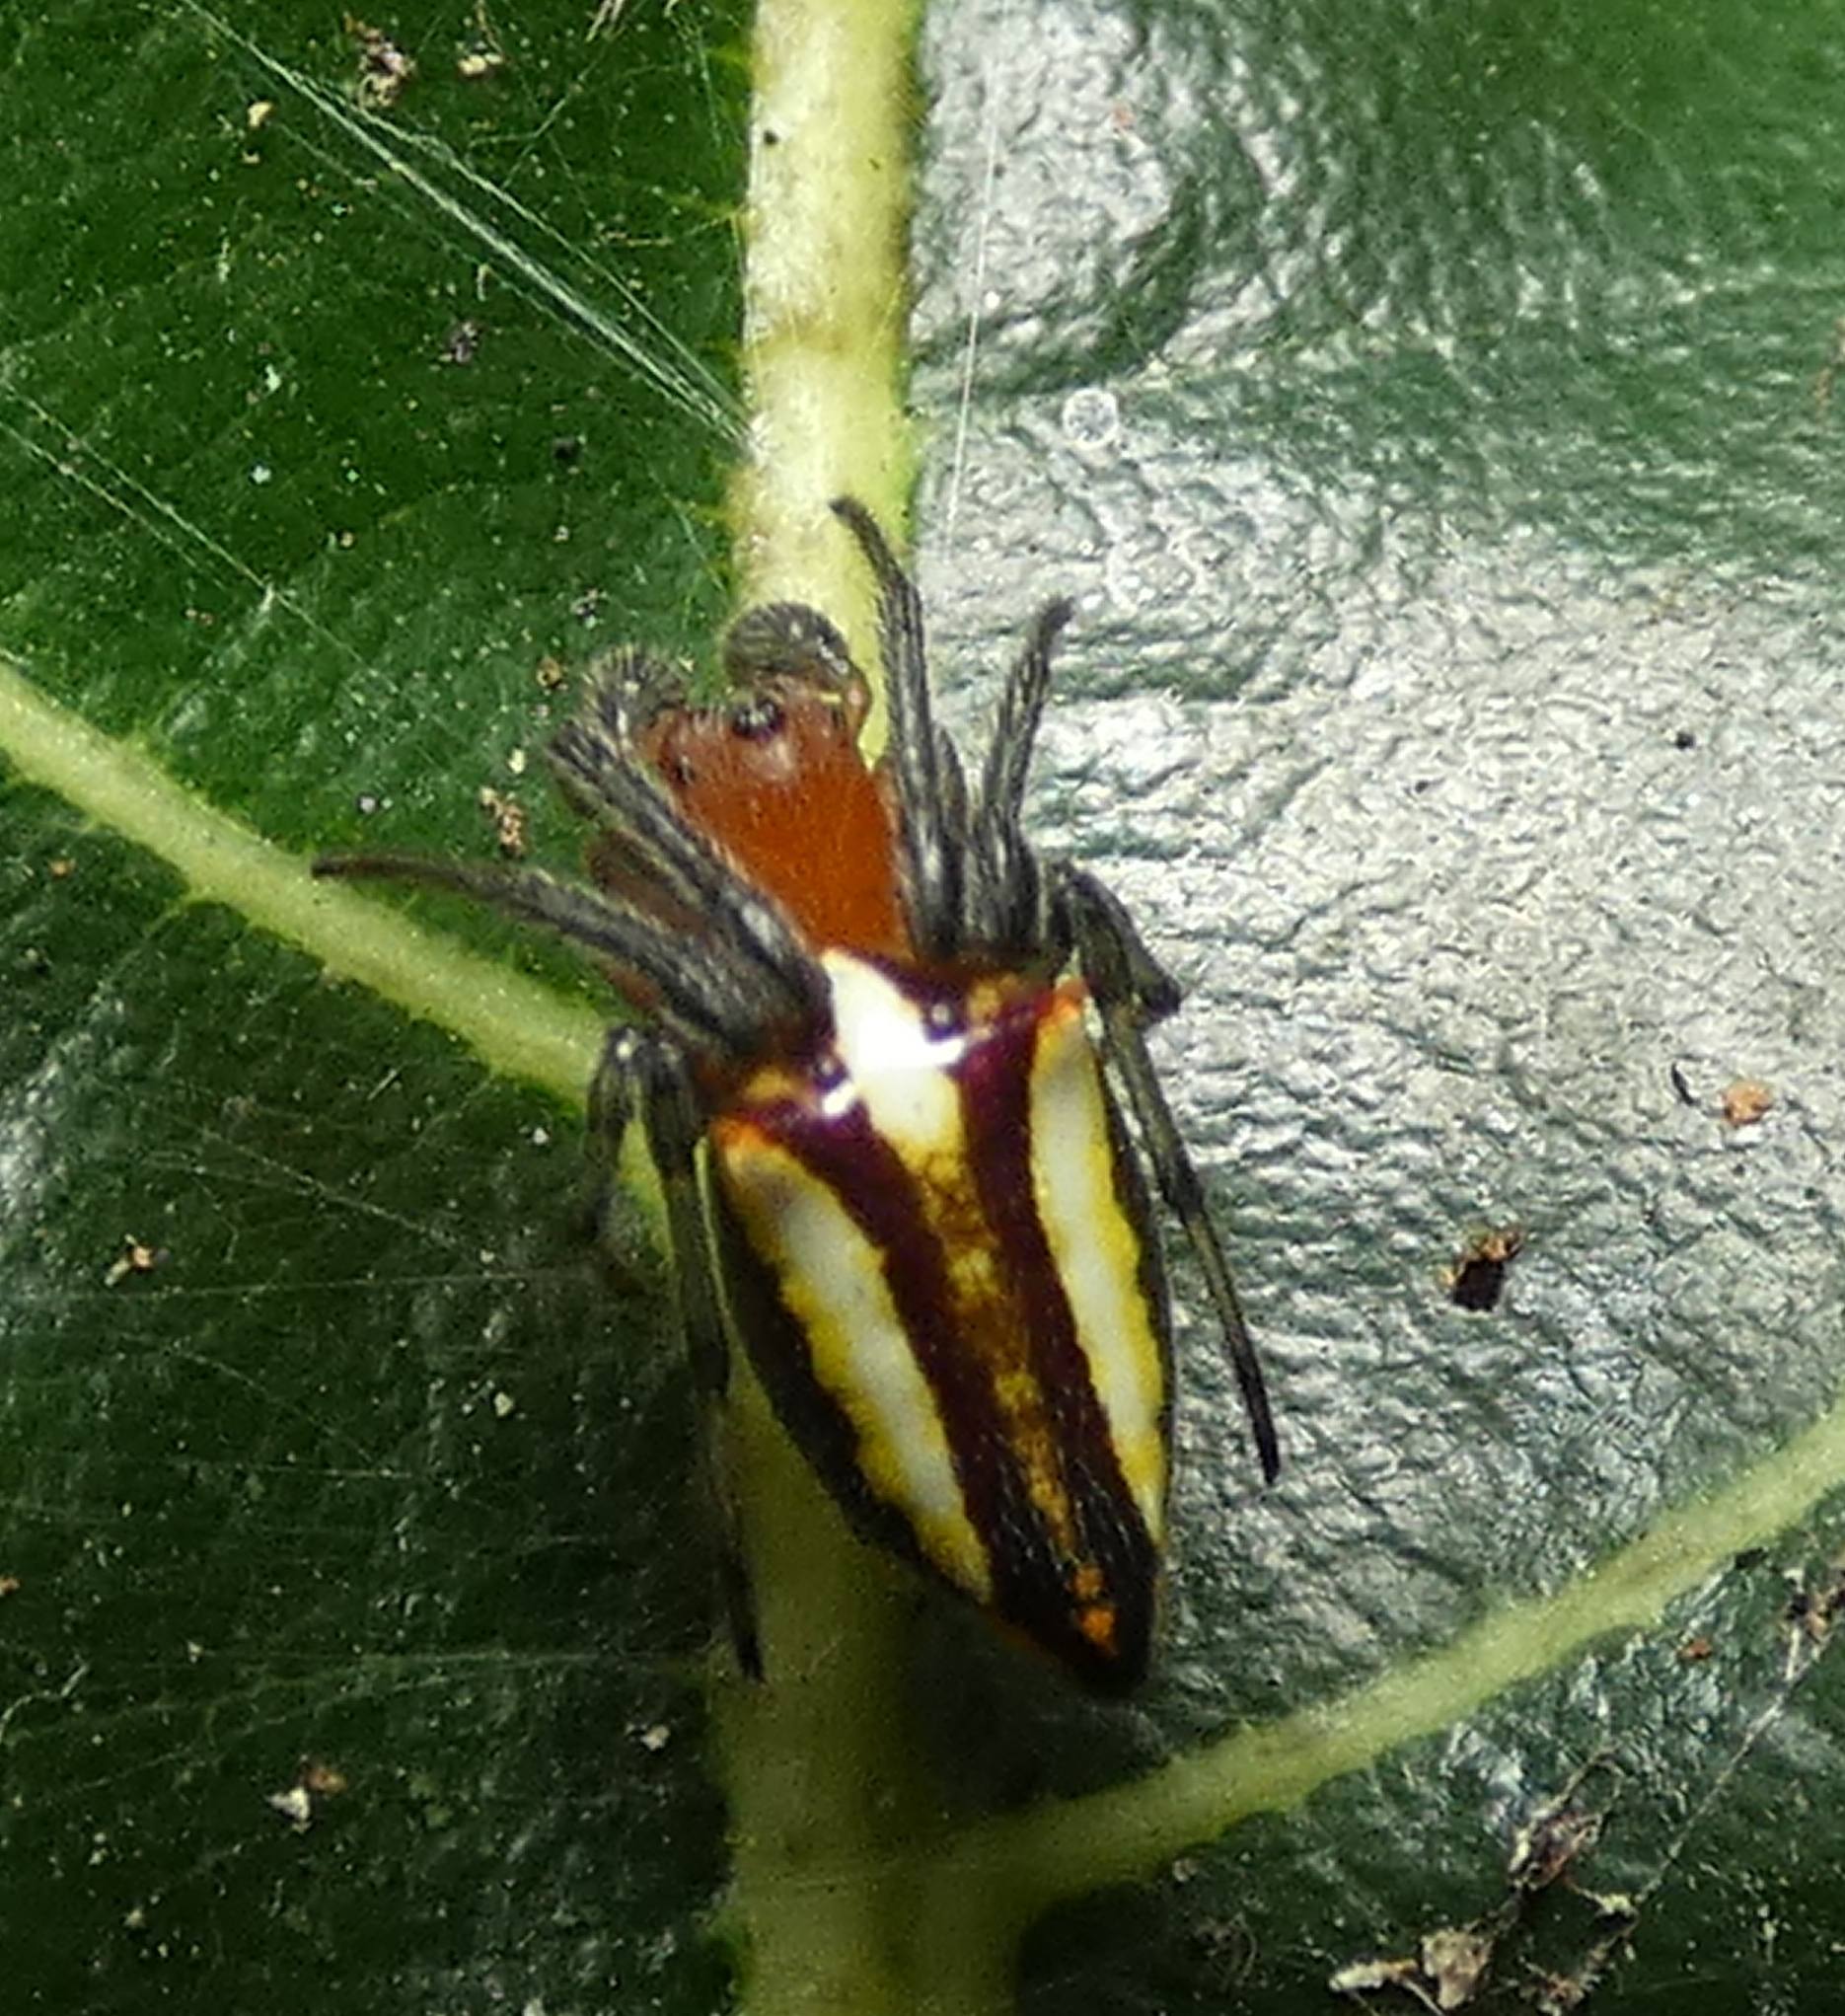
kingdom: Animalia
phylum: Arthropoda
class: Arachnida
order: Araneae
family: Araneidae
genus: Alpaida
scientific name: Alpaida bicornuta
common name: Orb weavers
